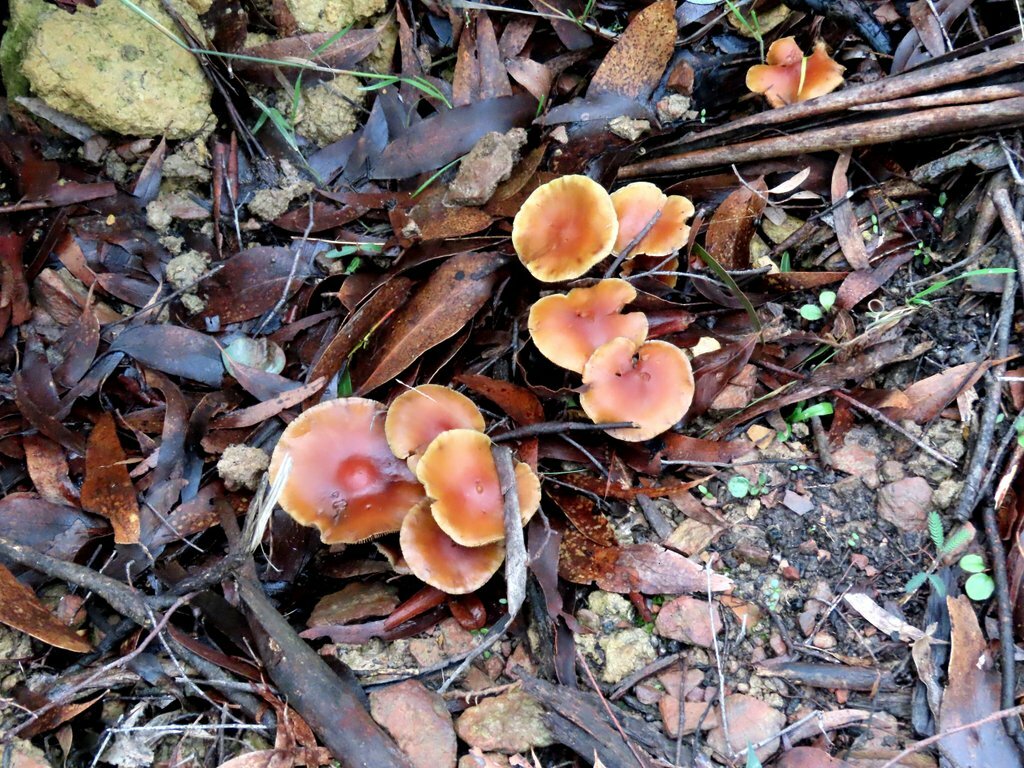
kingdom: Fungi
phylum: Basidiomycota
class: Agaricomycetes
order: Agaricales
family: Hymenogastraceae
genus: Psilocybe
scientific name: Psilocybe subaeruginosa
